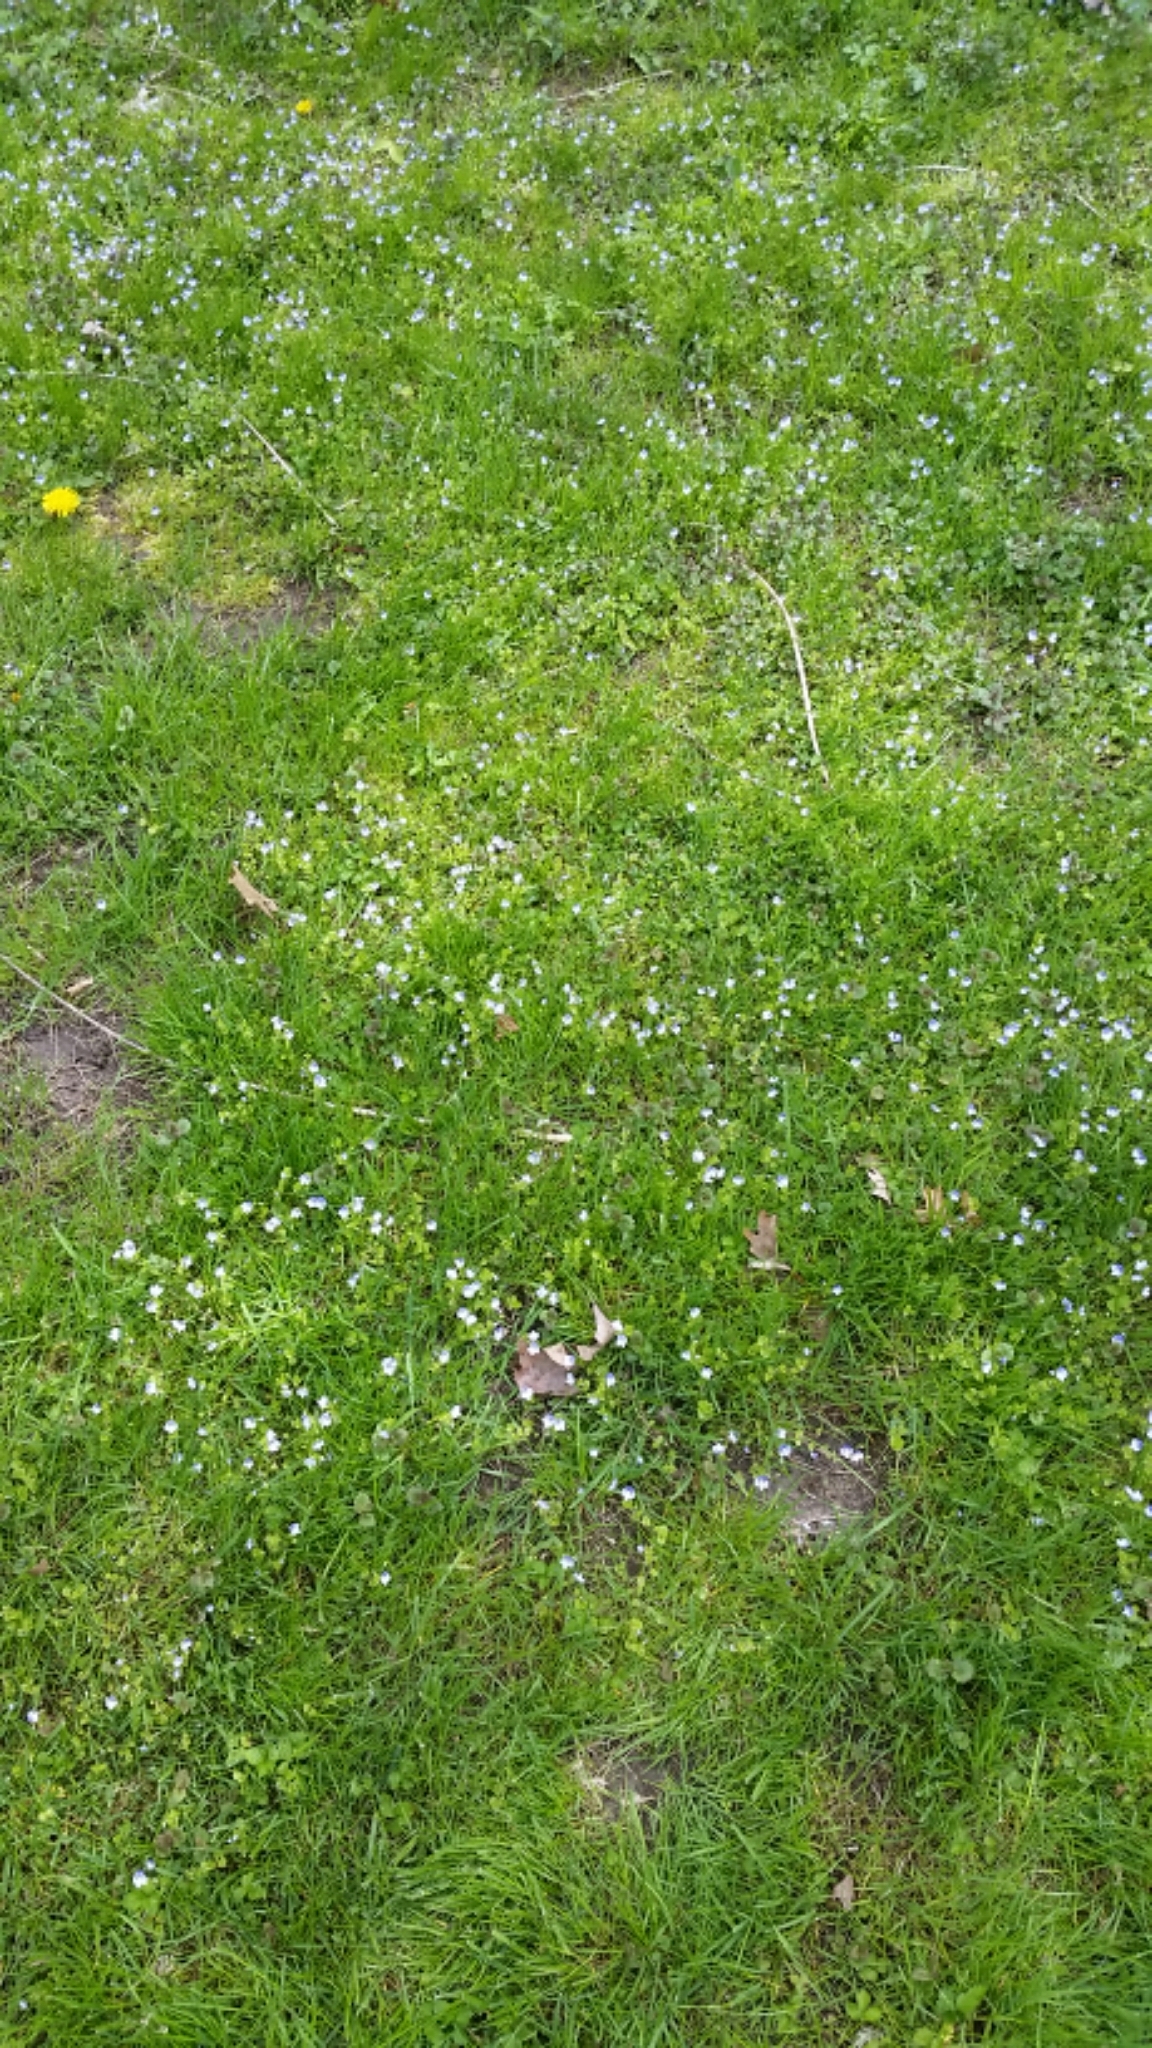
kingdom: Plantae
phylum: Tracheophyta
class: Magnoliopsida
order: Lamiales
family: Plantaginaceae
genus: Veronica
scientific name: Veronica filiformis
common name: Slender speedwell
